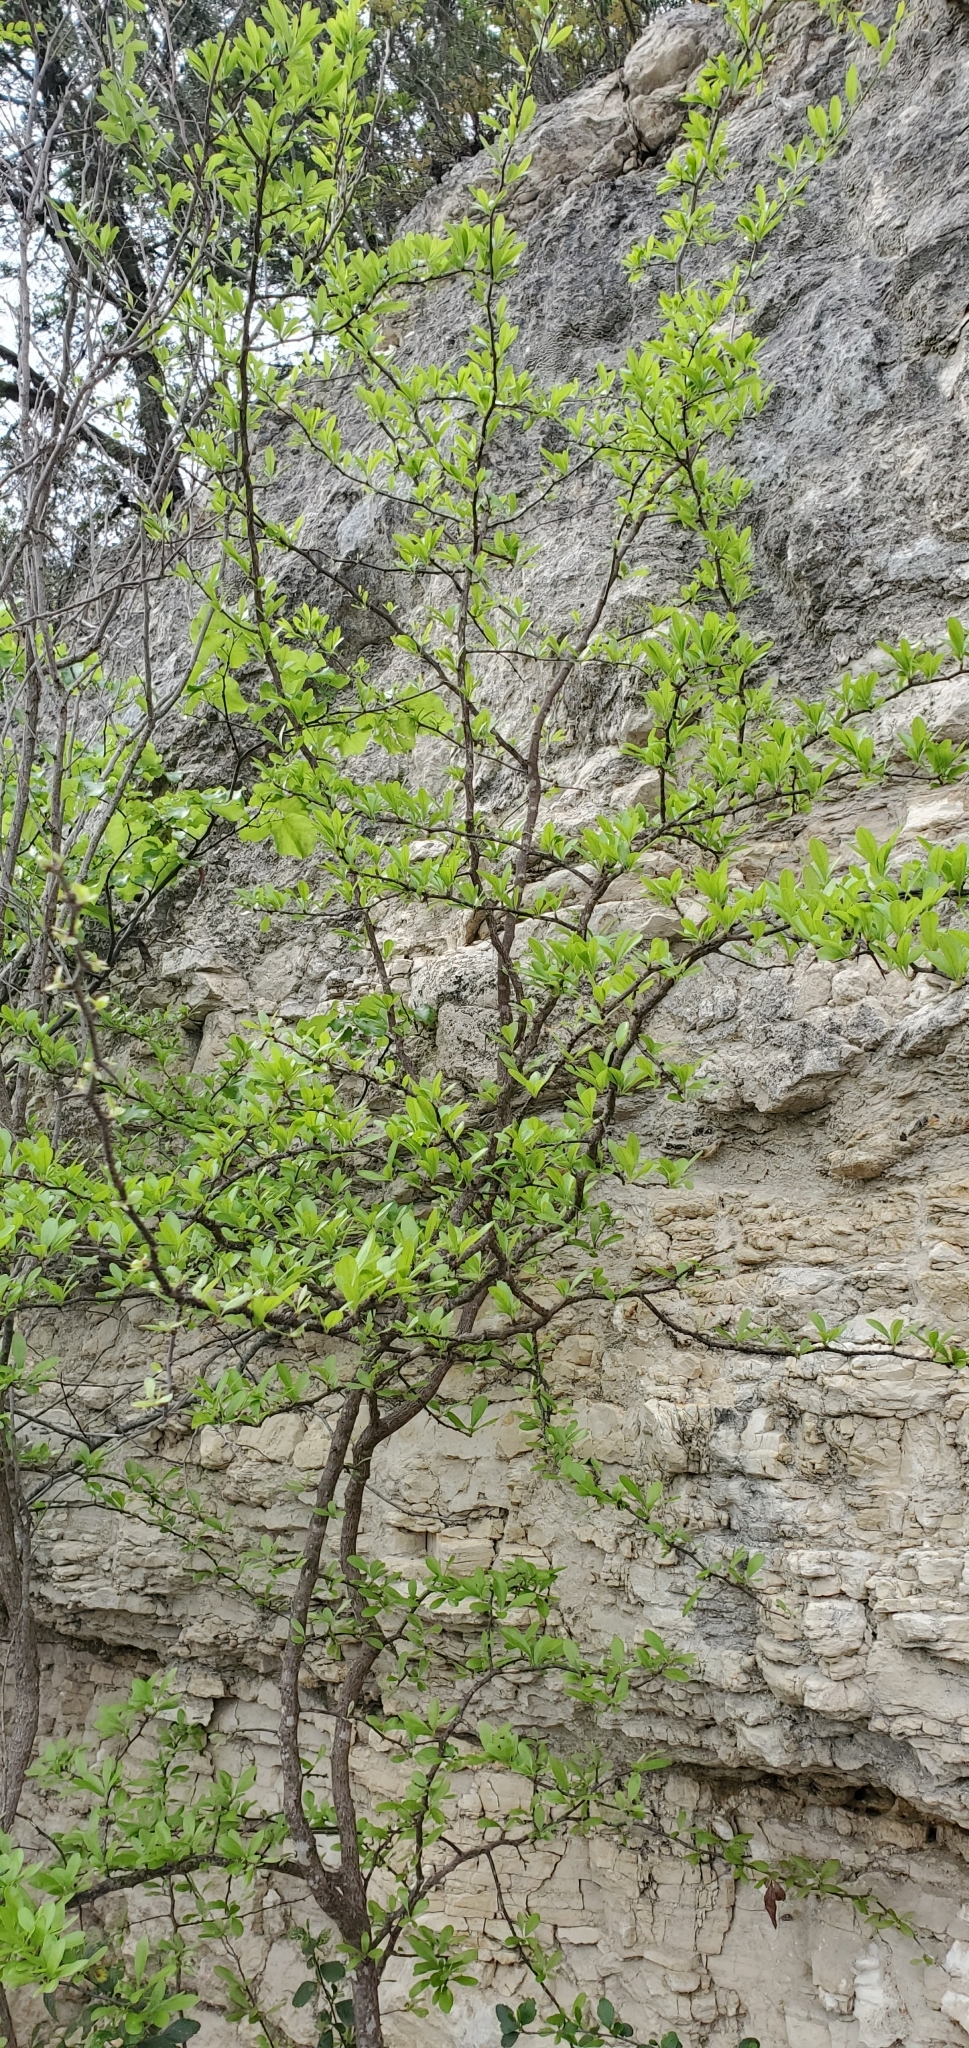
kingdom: Plantae
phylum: Tracheophyta
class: Magnoliopsida
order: Ericales
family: Sapotaceae
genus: Sideroxylon
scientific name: Sideroxylon lanuginosum
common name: Chittamwood
